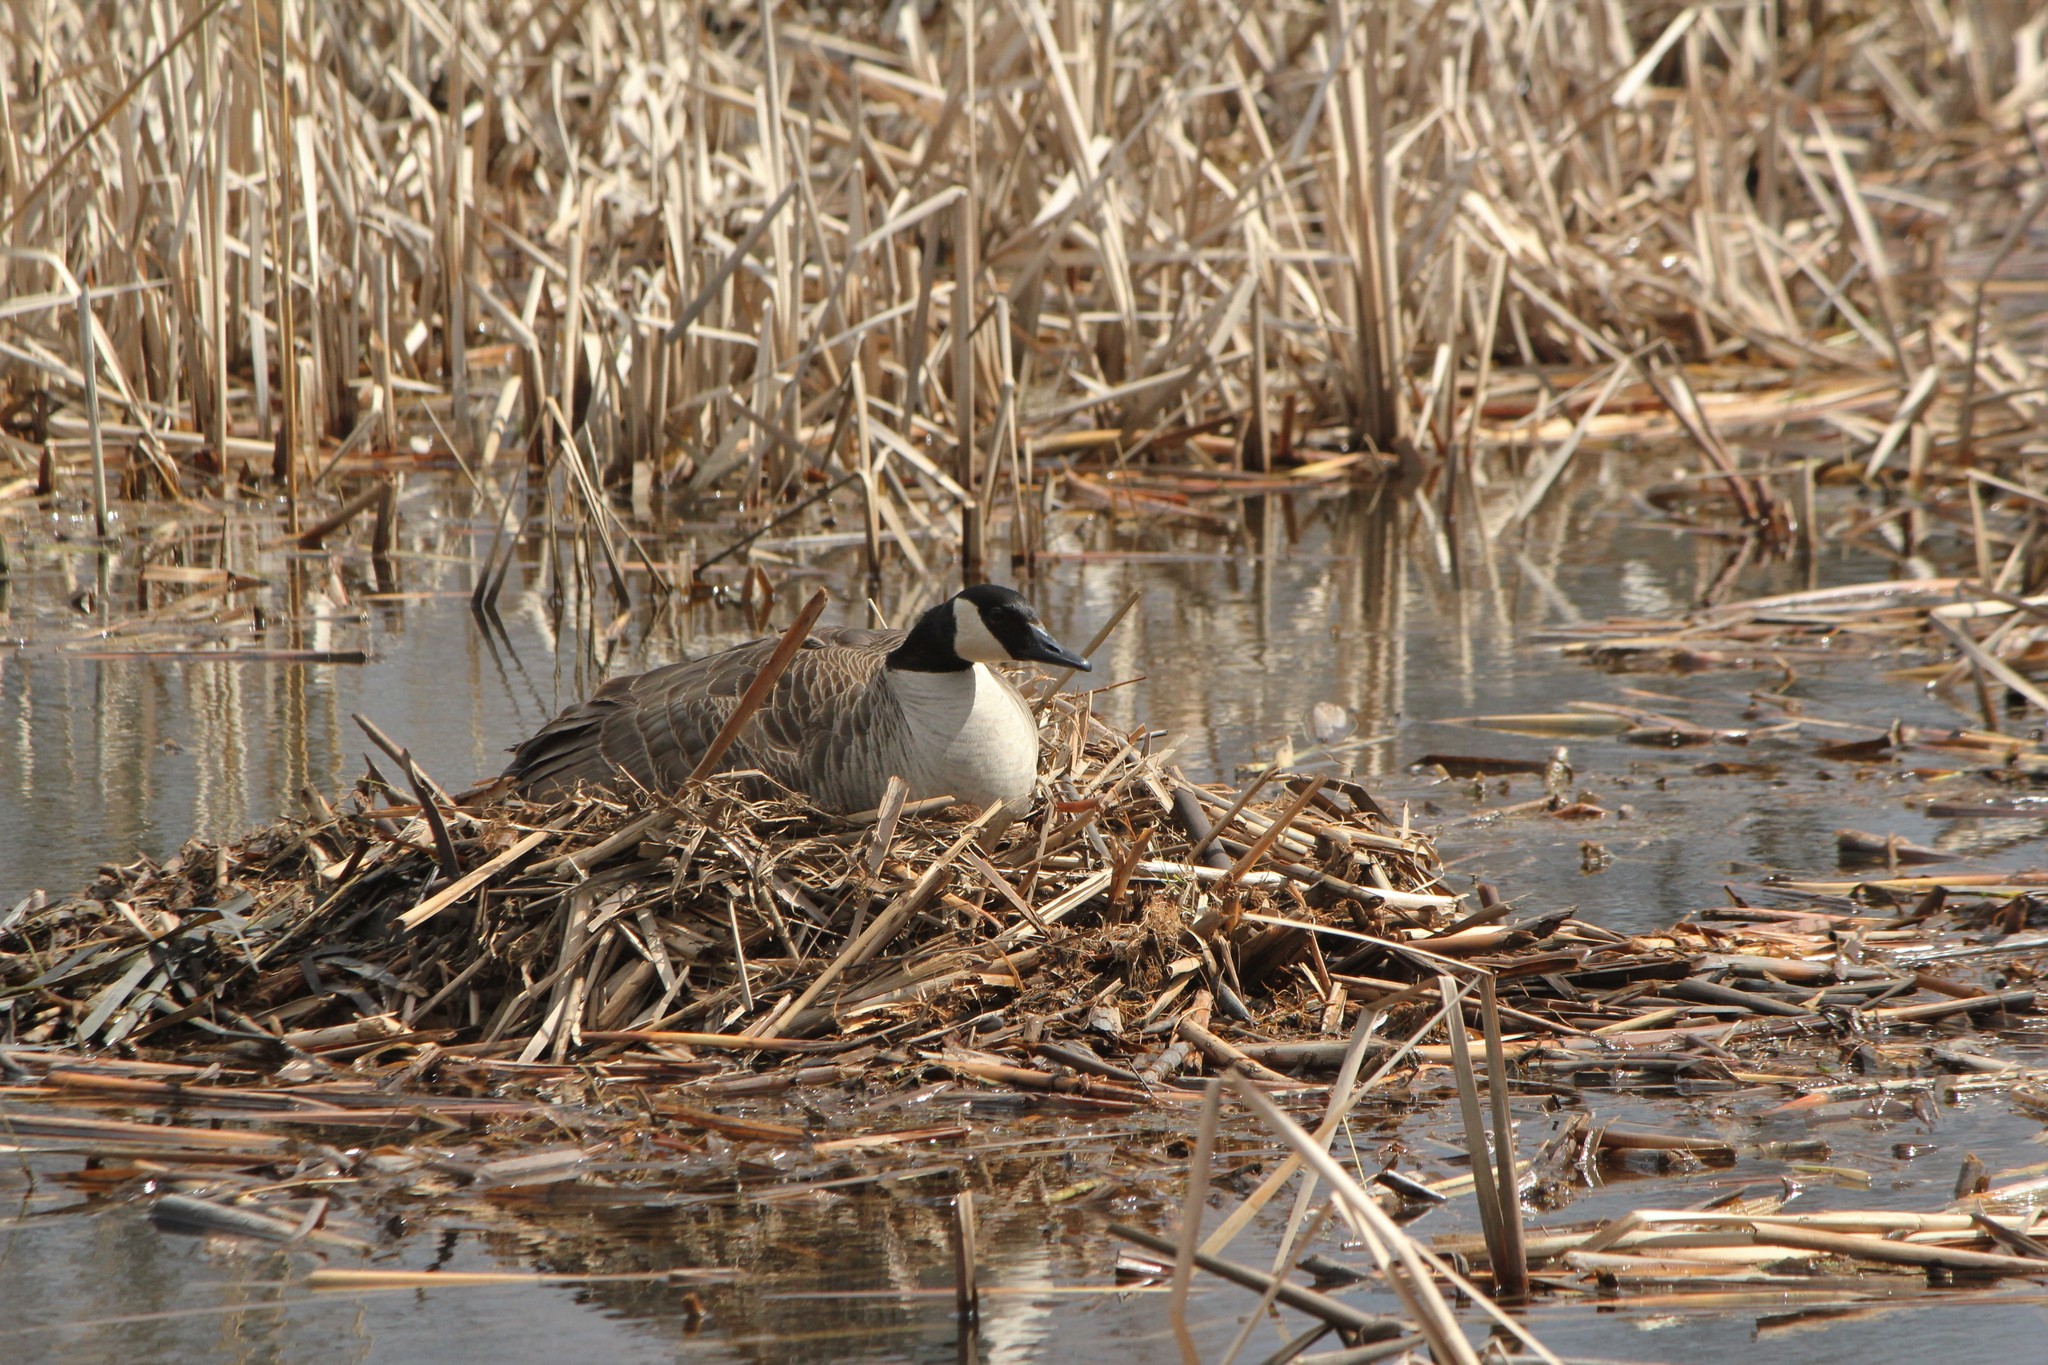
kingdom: Animalia
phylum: Chordata
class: Aves
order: Anseriformes
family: Anatidae
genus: Branta
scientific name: Branta canadensis
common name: Canada goose
